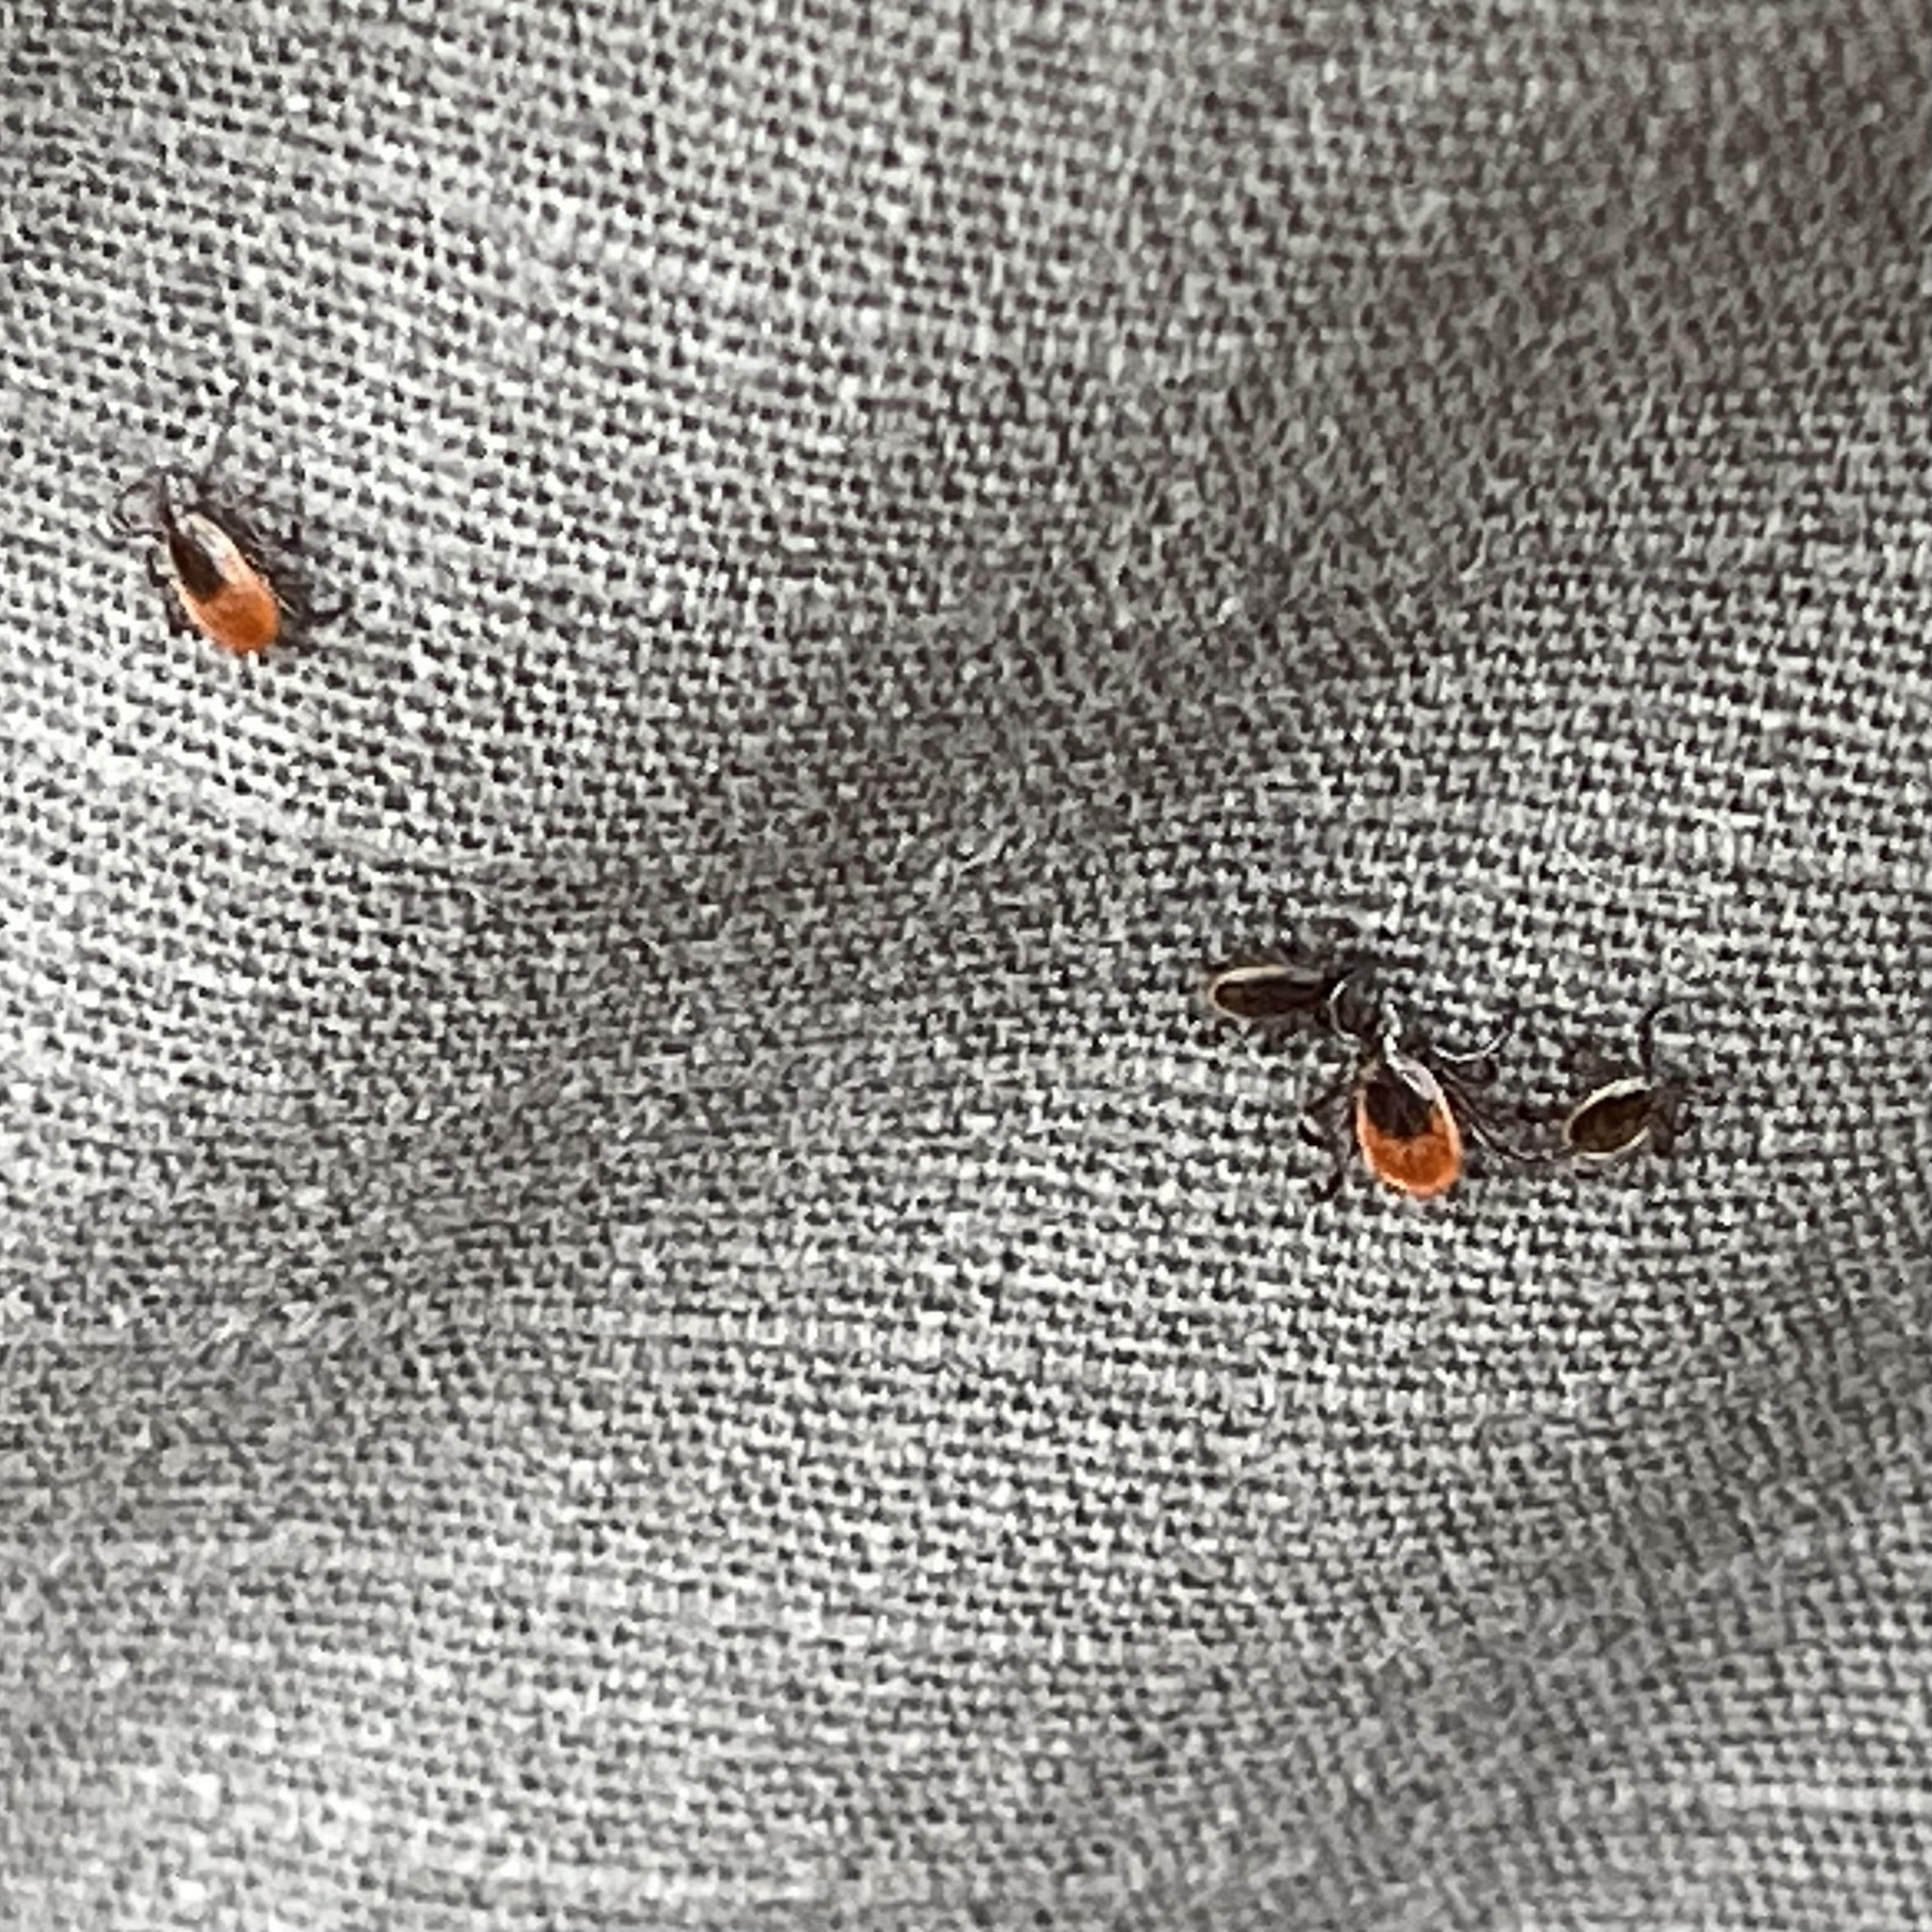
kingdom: Animalia
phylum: Arthropoda
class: Arachnida
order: Ixodida
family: Ixodidae
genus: Ixodes
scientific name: Ixodes scapularis
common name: Black legged tick
